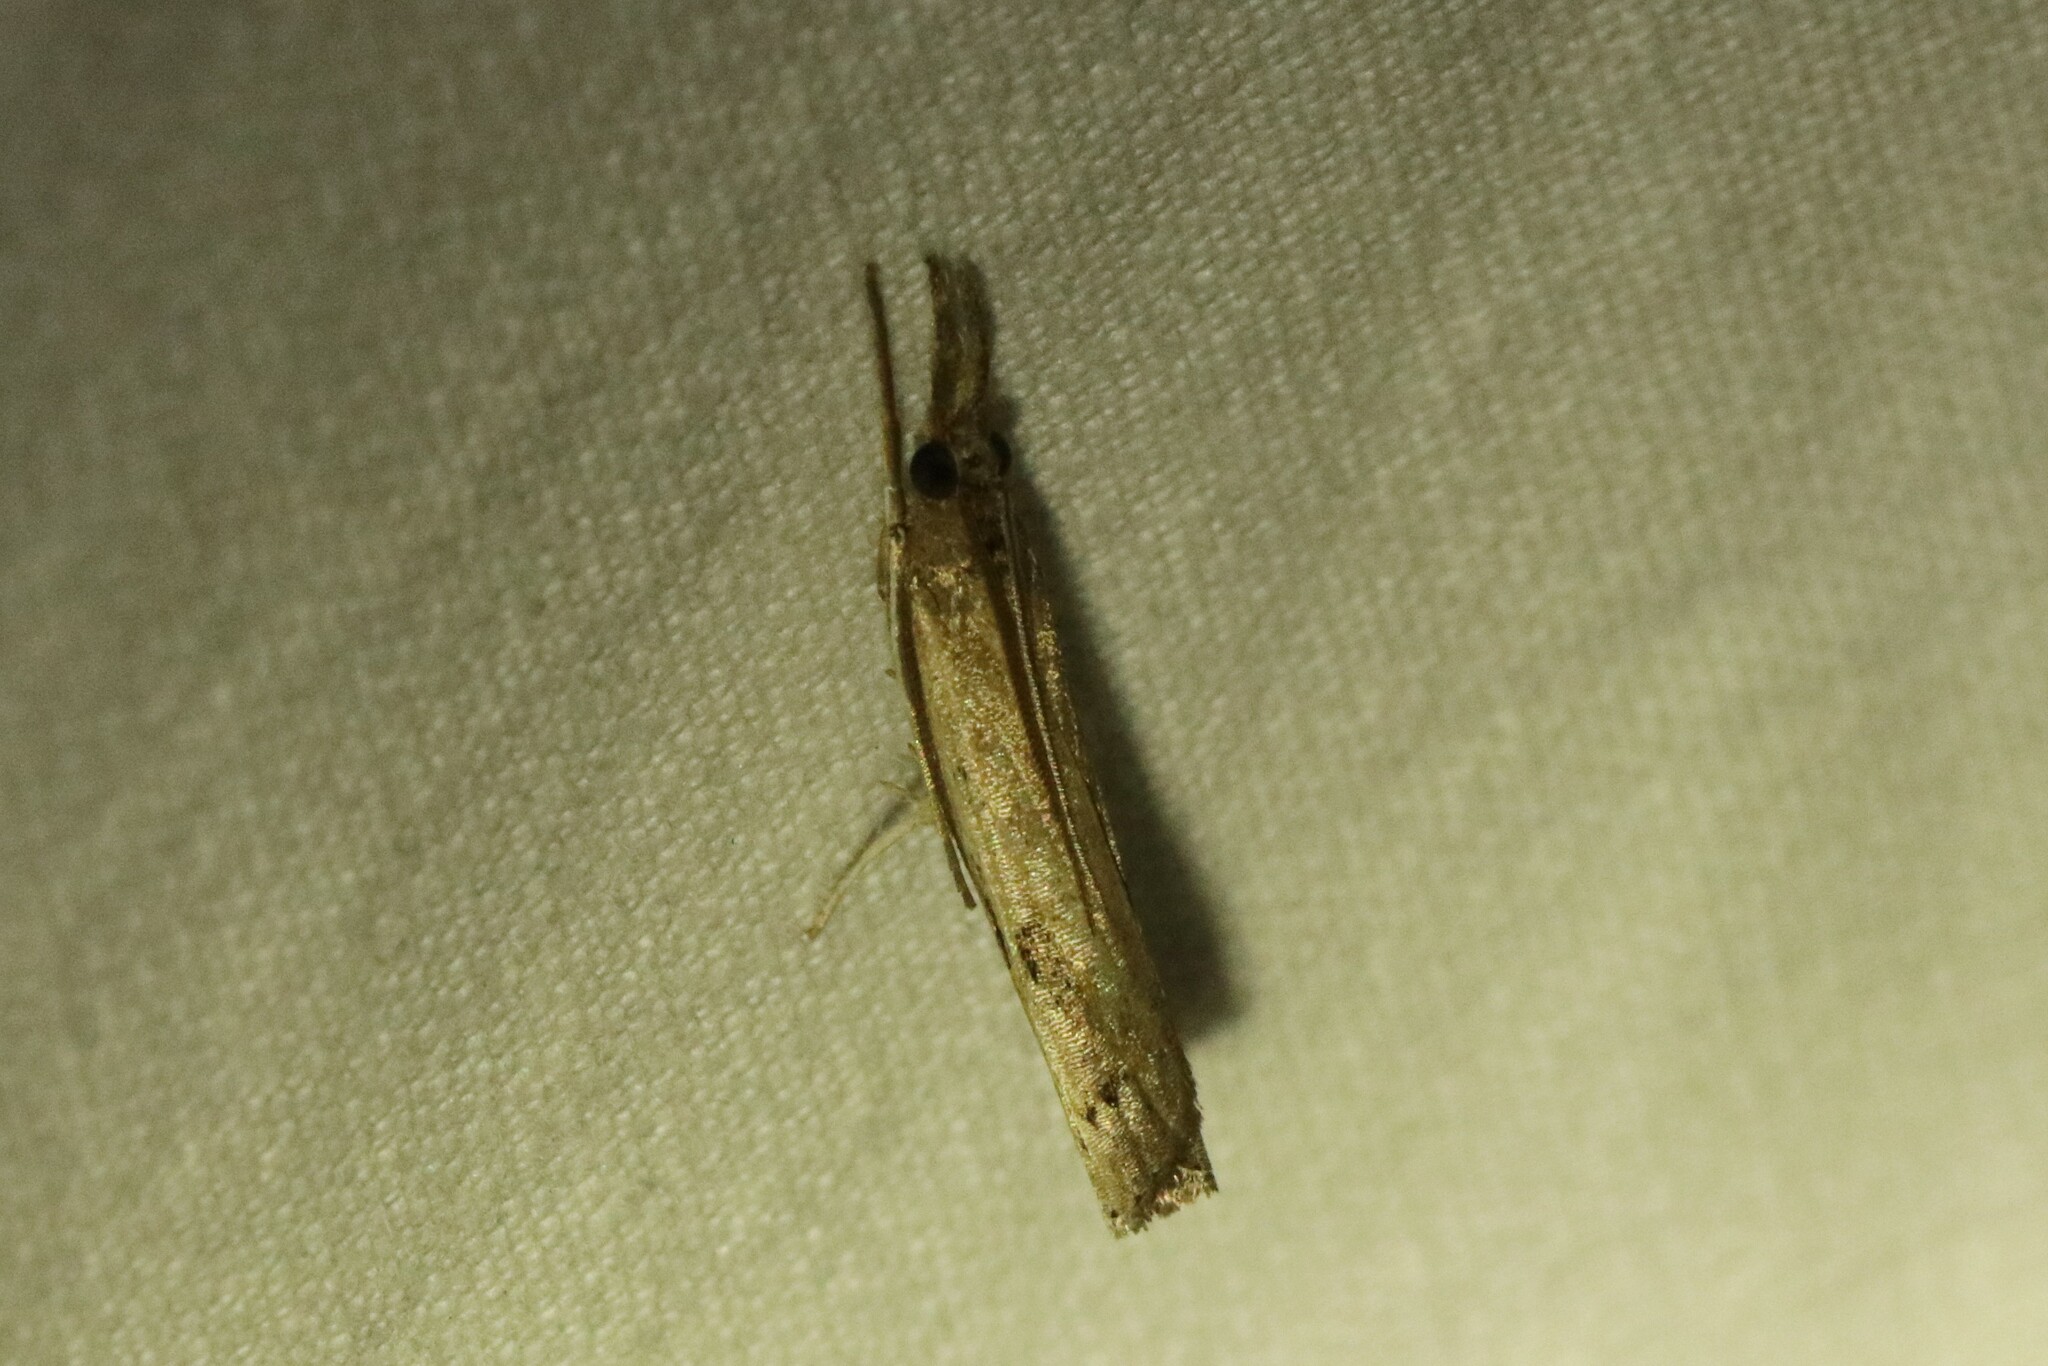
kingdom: Animalia
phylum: Arthropoda
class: Insecta
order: Lepidoptera
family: Crambidae
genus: Fissicrambus
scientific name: Fissicrambus mutabilis
